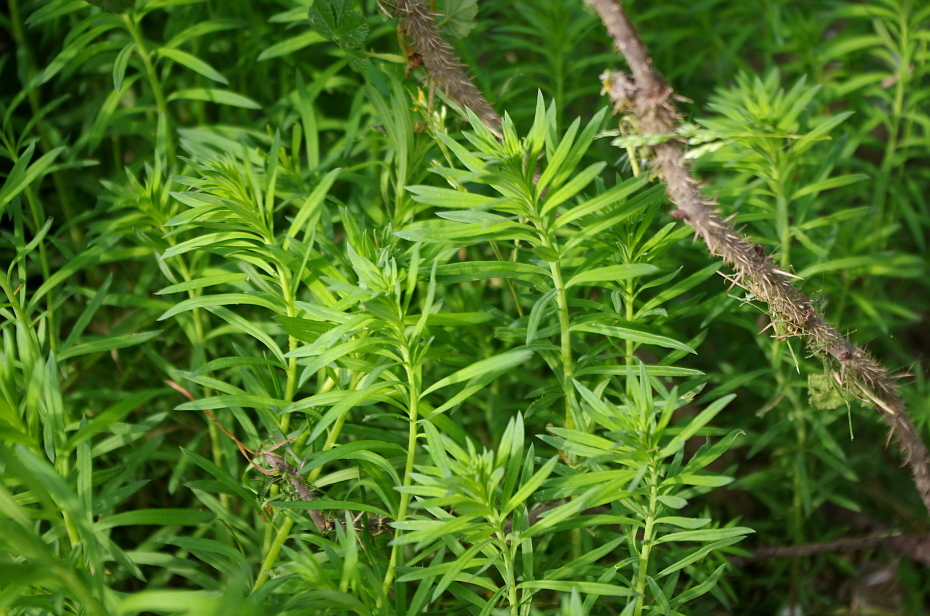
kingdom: Plantae
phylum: Tracheophyta
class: Magnoliopsida
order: Lamiales
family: Plantaginaceae
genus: Linaria
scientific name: Linaria vulgaris
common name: Butter and eggs
